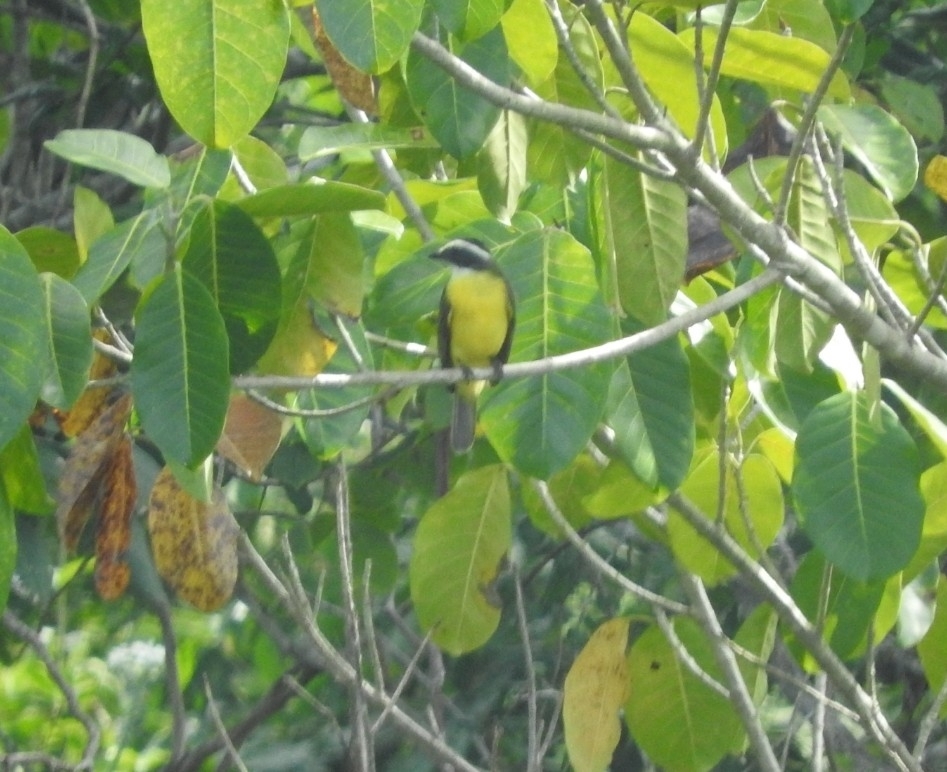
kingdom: Animalia
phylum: Chordata
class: Aves
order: Passeriformes
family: Tyrannidae
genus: Myiozetetes
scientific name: Myiozetetes similis
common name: Social flycatcher
